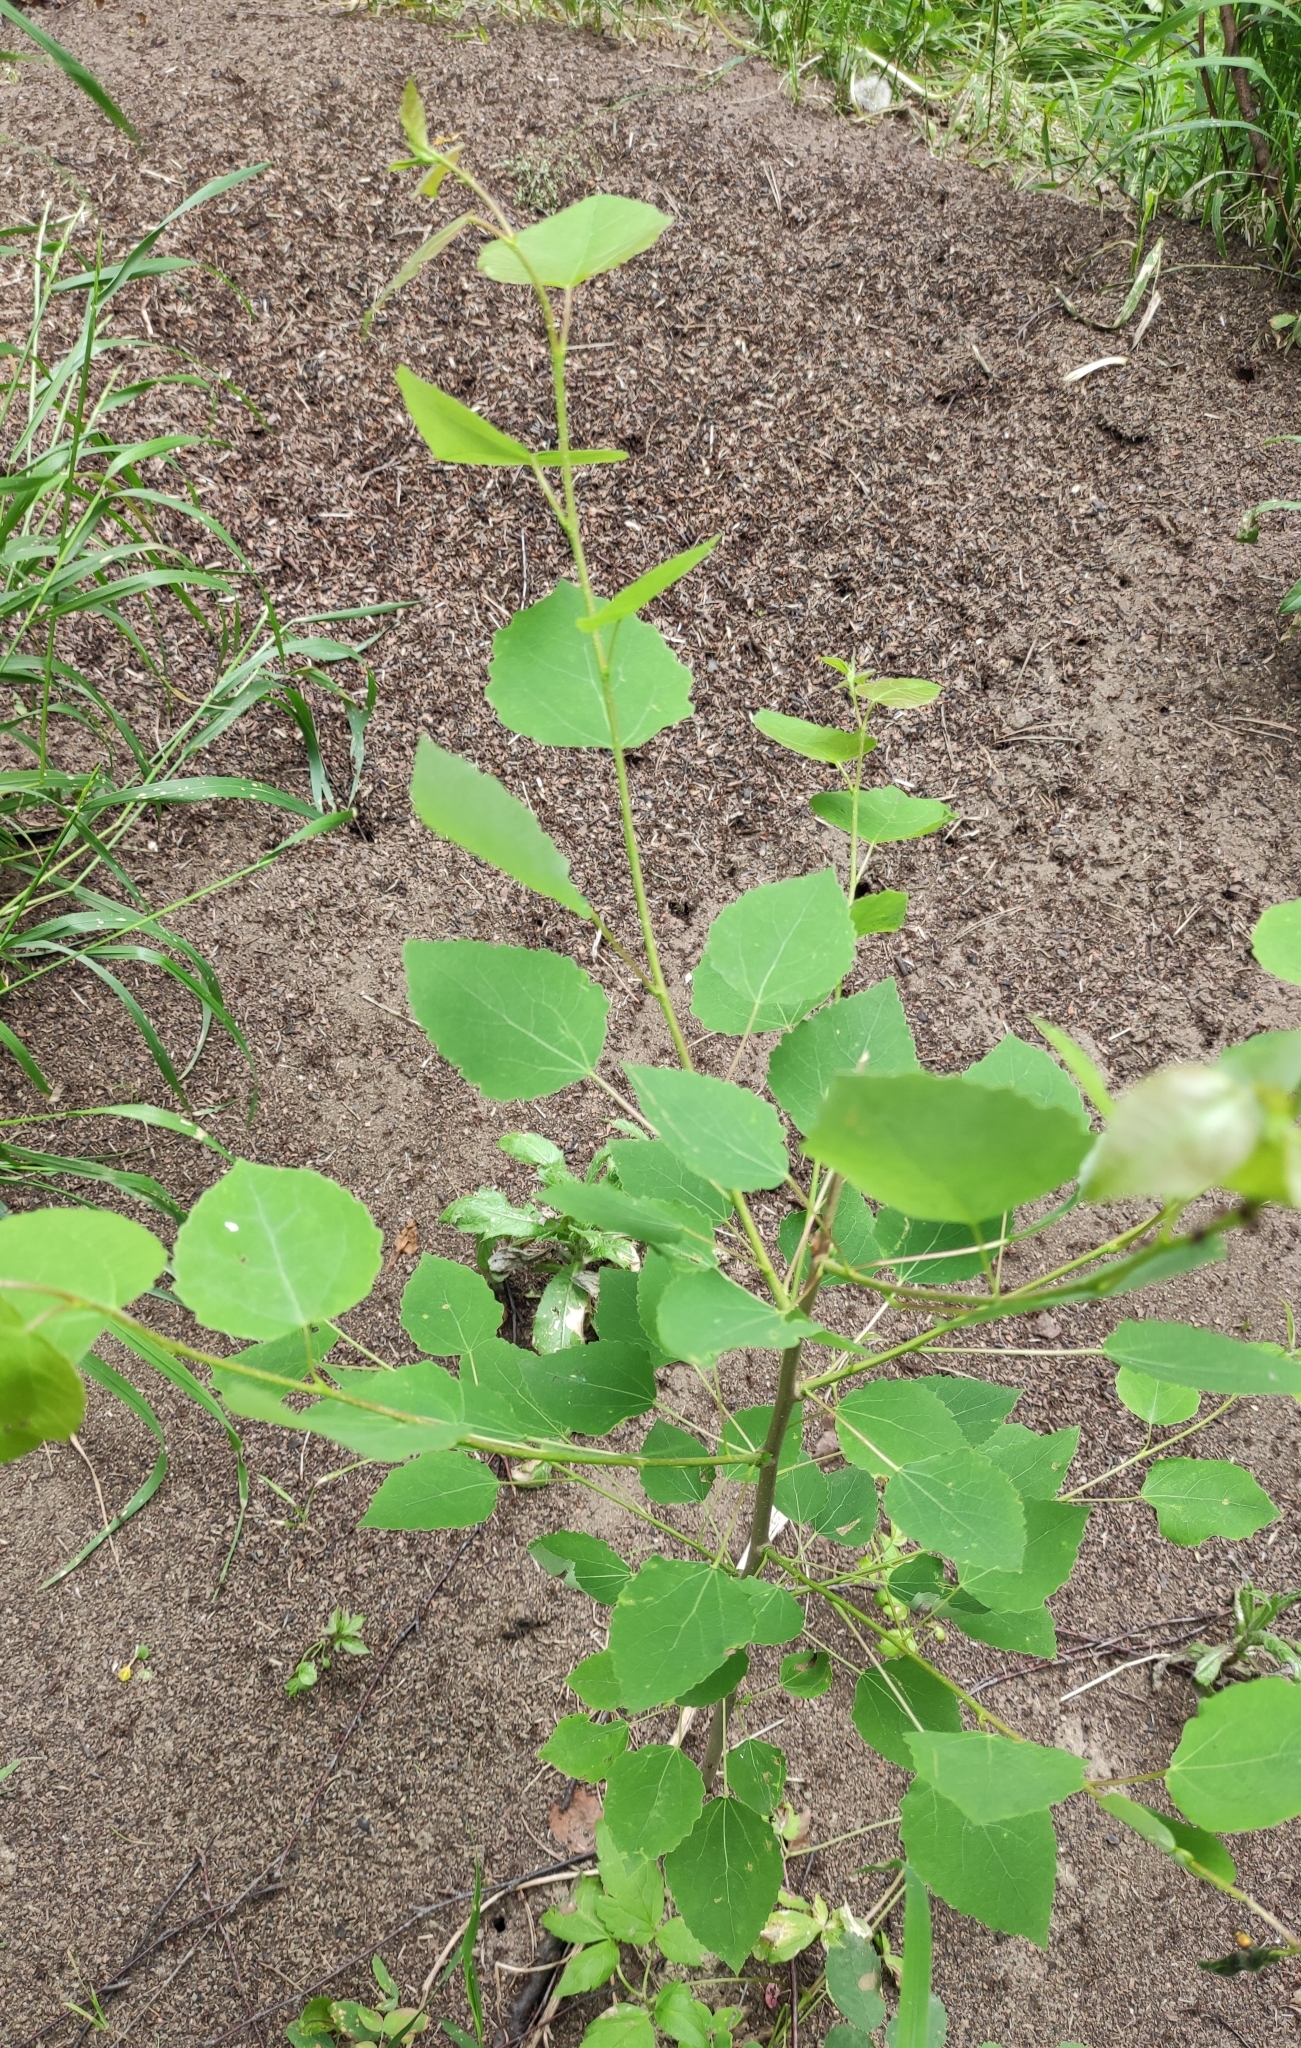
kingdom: Plantae
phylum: Tracheophyta
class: Magnoliopsida
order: Malpighiales
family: Salicaceae
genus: Populus
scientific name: Populus tremula
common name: European aspen
